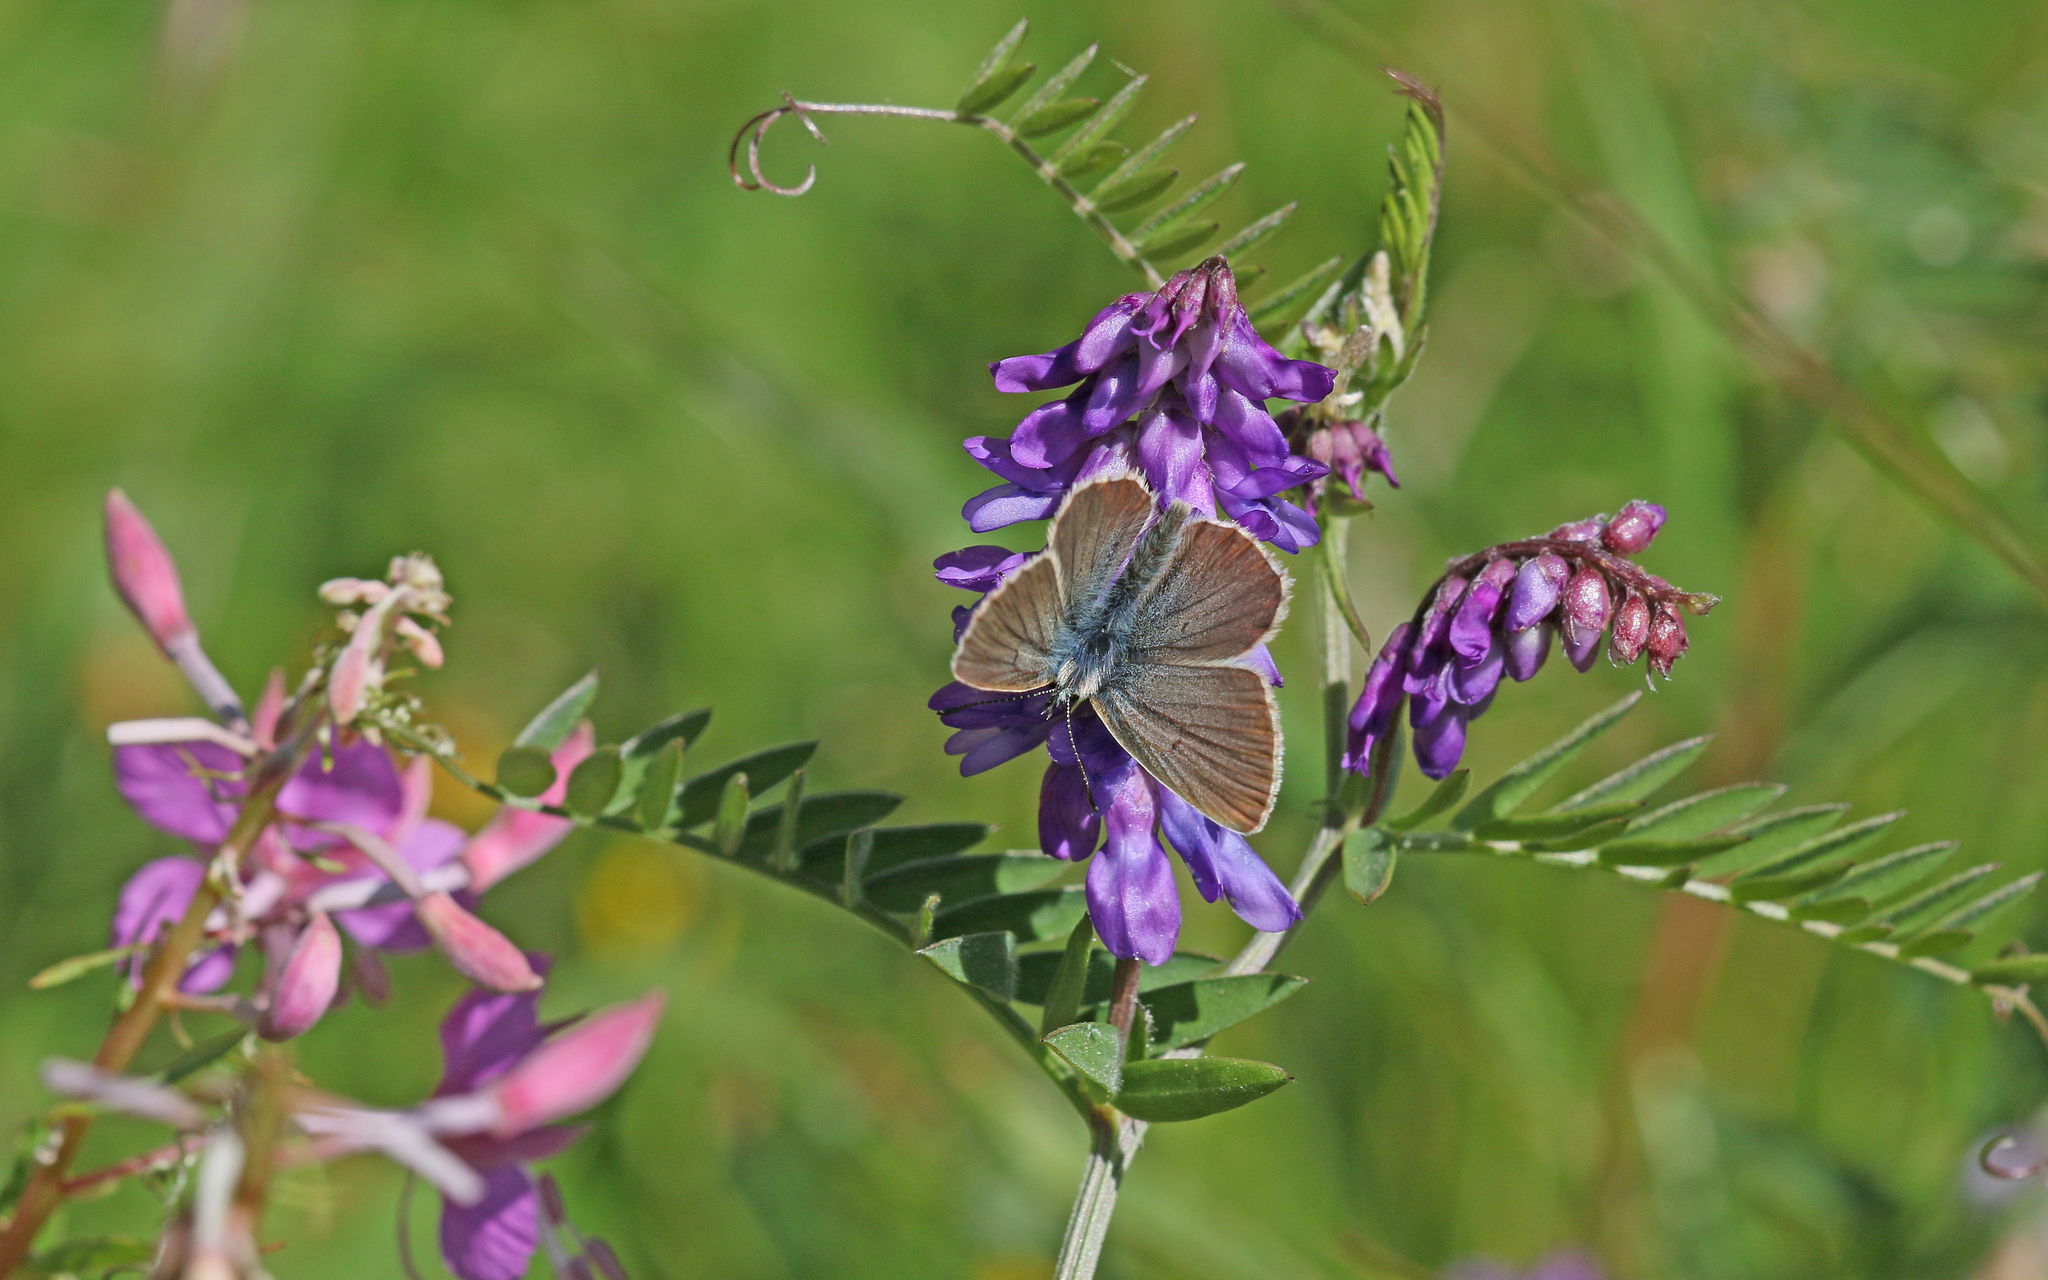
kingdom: Animalia
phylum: Arthropoda
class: Insecta
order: Lepidoptera
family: Lycaenidae
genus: Pseudoaricia
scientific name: Pseudoaricia nicias
